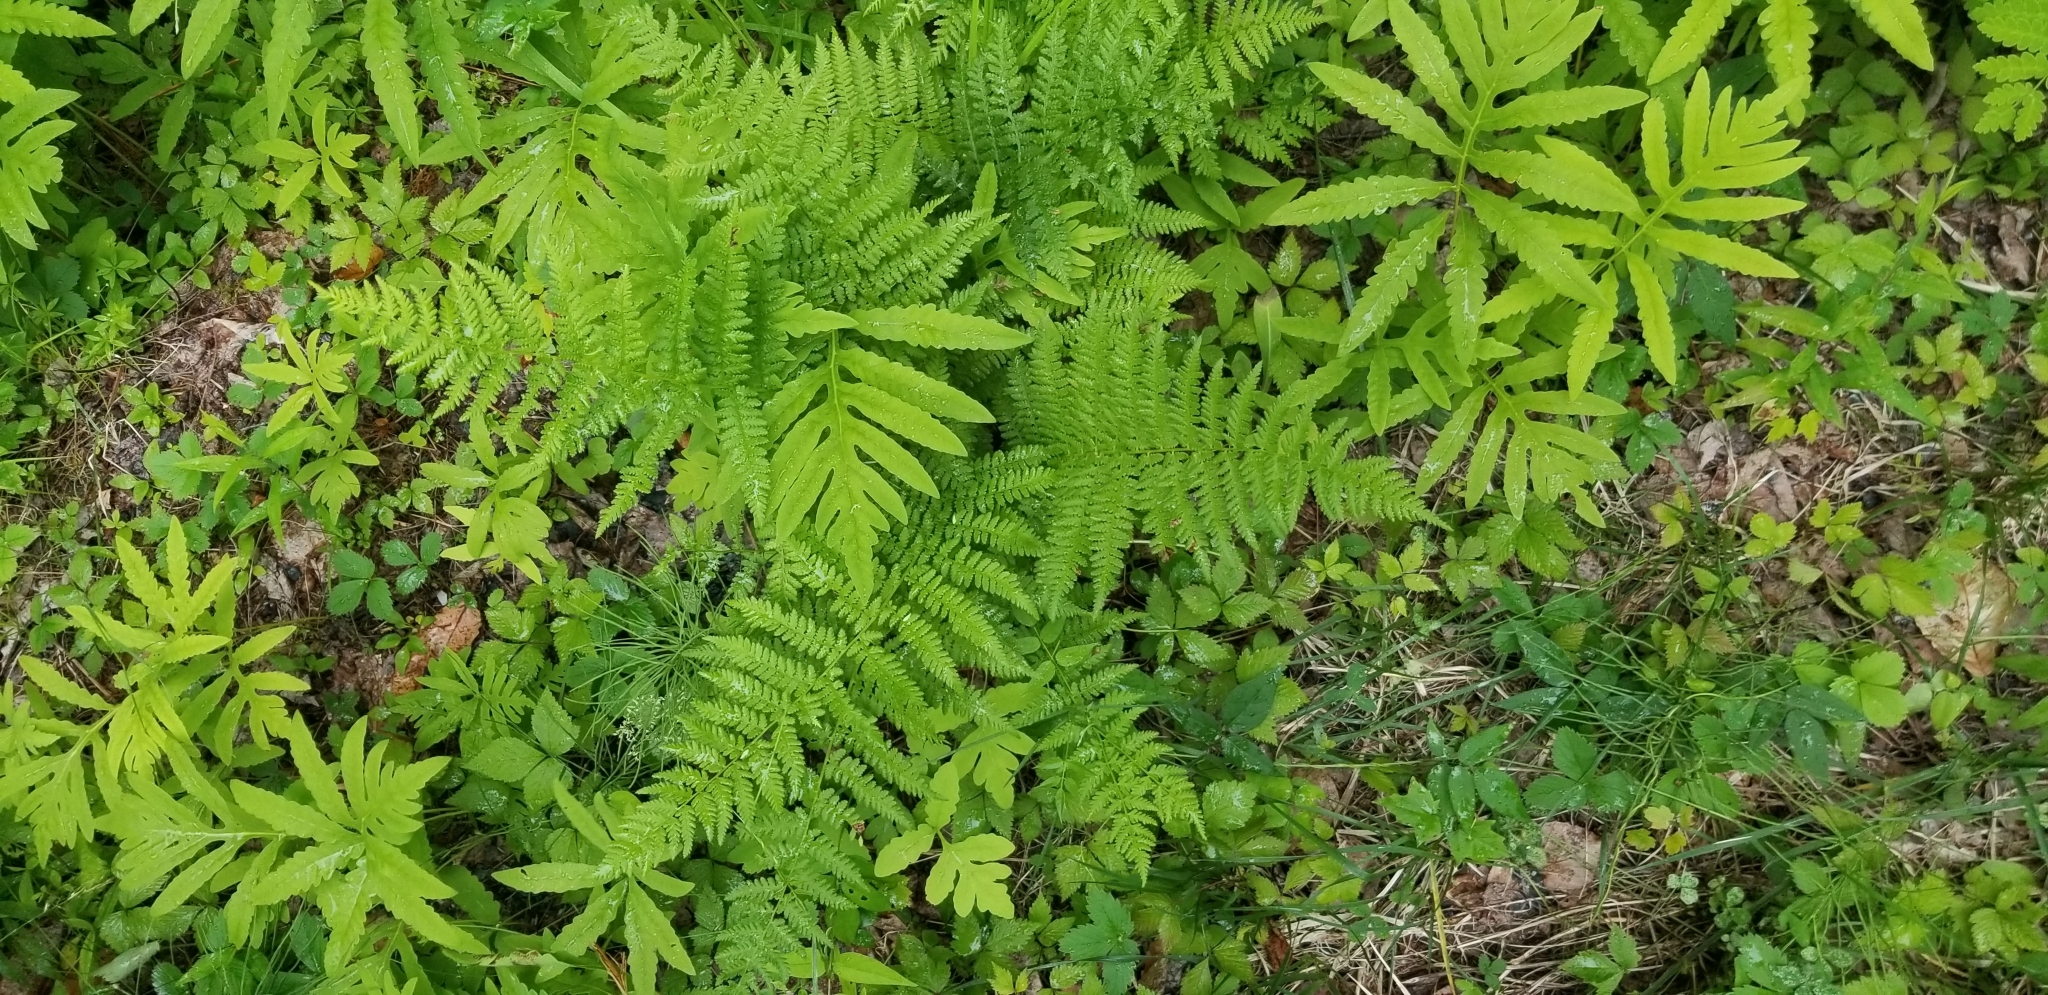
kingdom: Plantae
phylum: Tracheophyta
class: Polypodiopsida
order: Polypodiales
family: Athyriaceae
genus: Athyrium
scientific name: Athyrium angustum
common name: Northern lady fern
